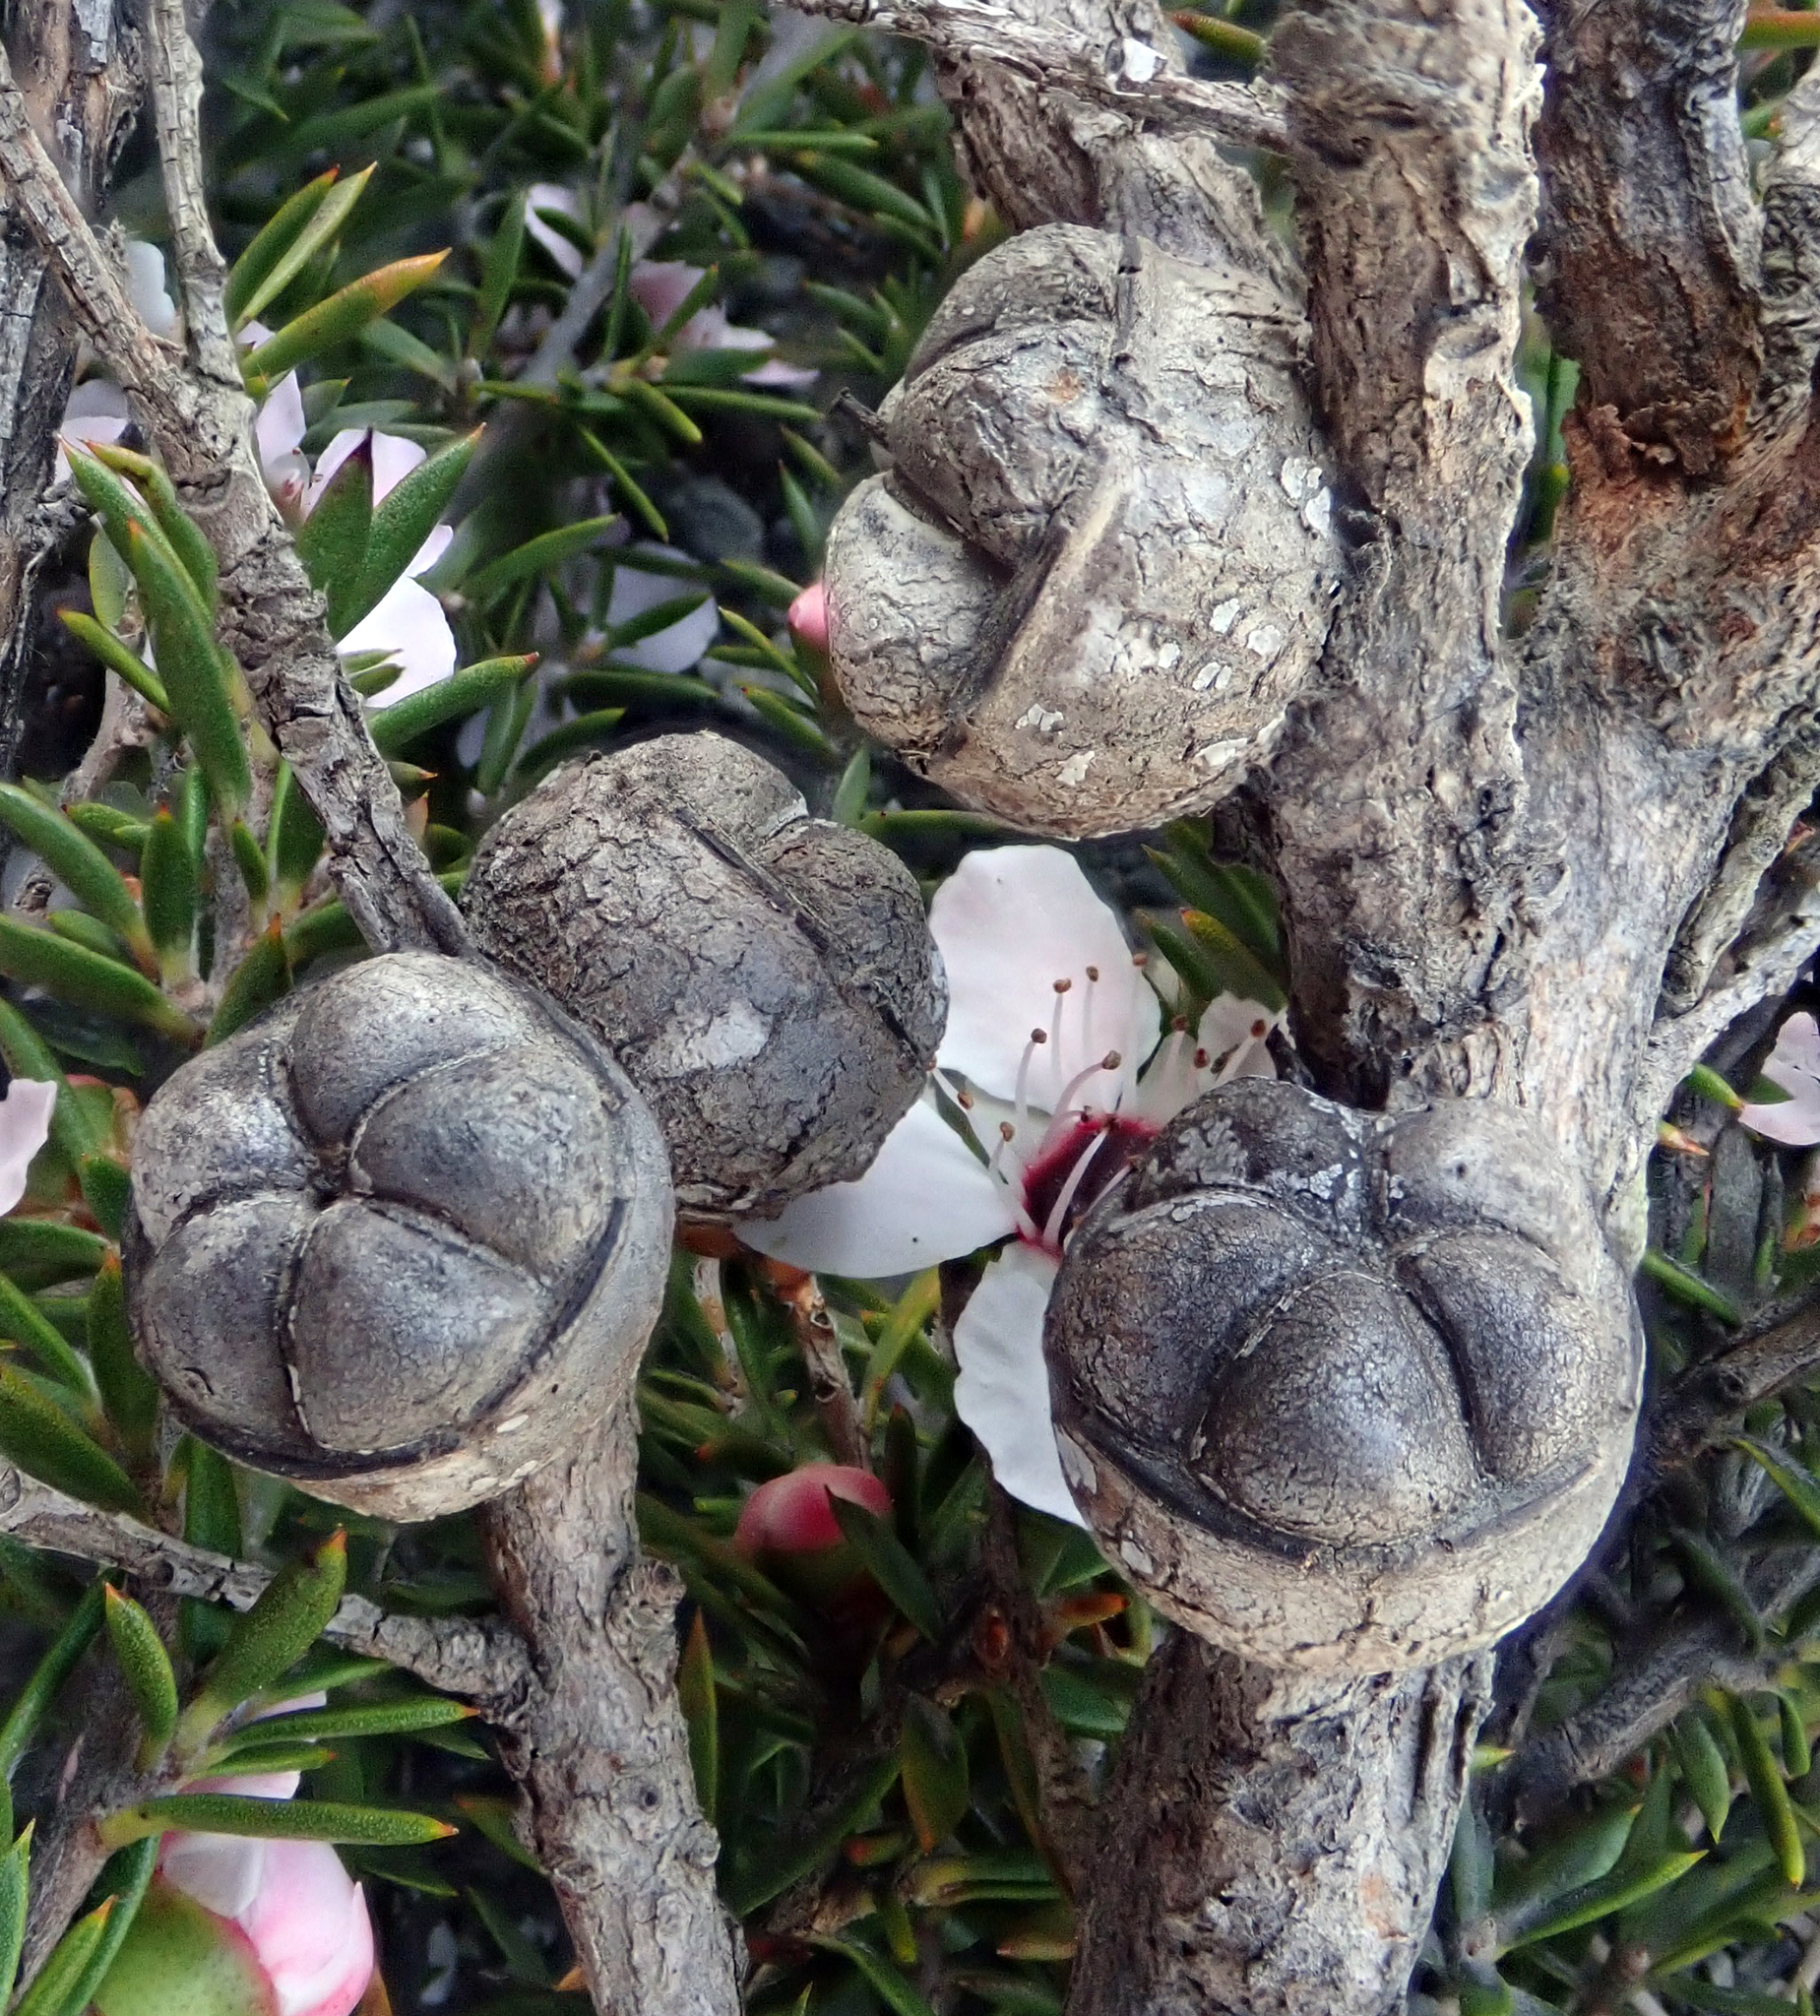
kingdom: Plantae
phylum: Tracheophyta
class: Magnoliopsida
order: Myrtales
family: Myrtaceae
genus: Leptospermum
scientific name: Leptospermum scoparium
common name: Broom tea-tree
